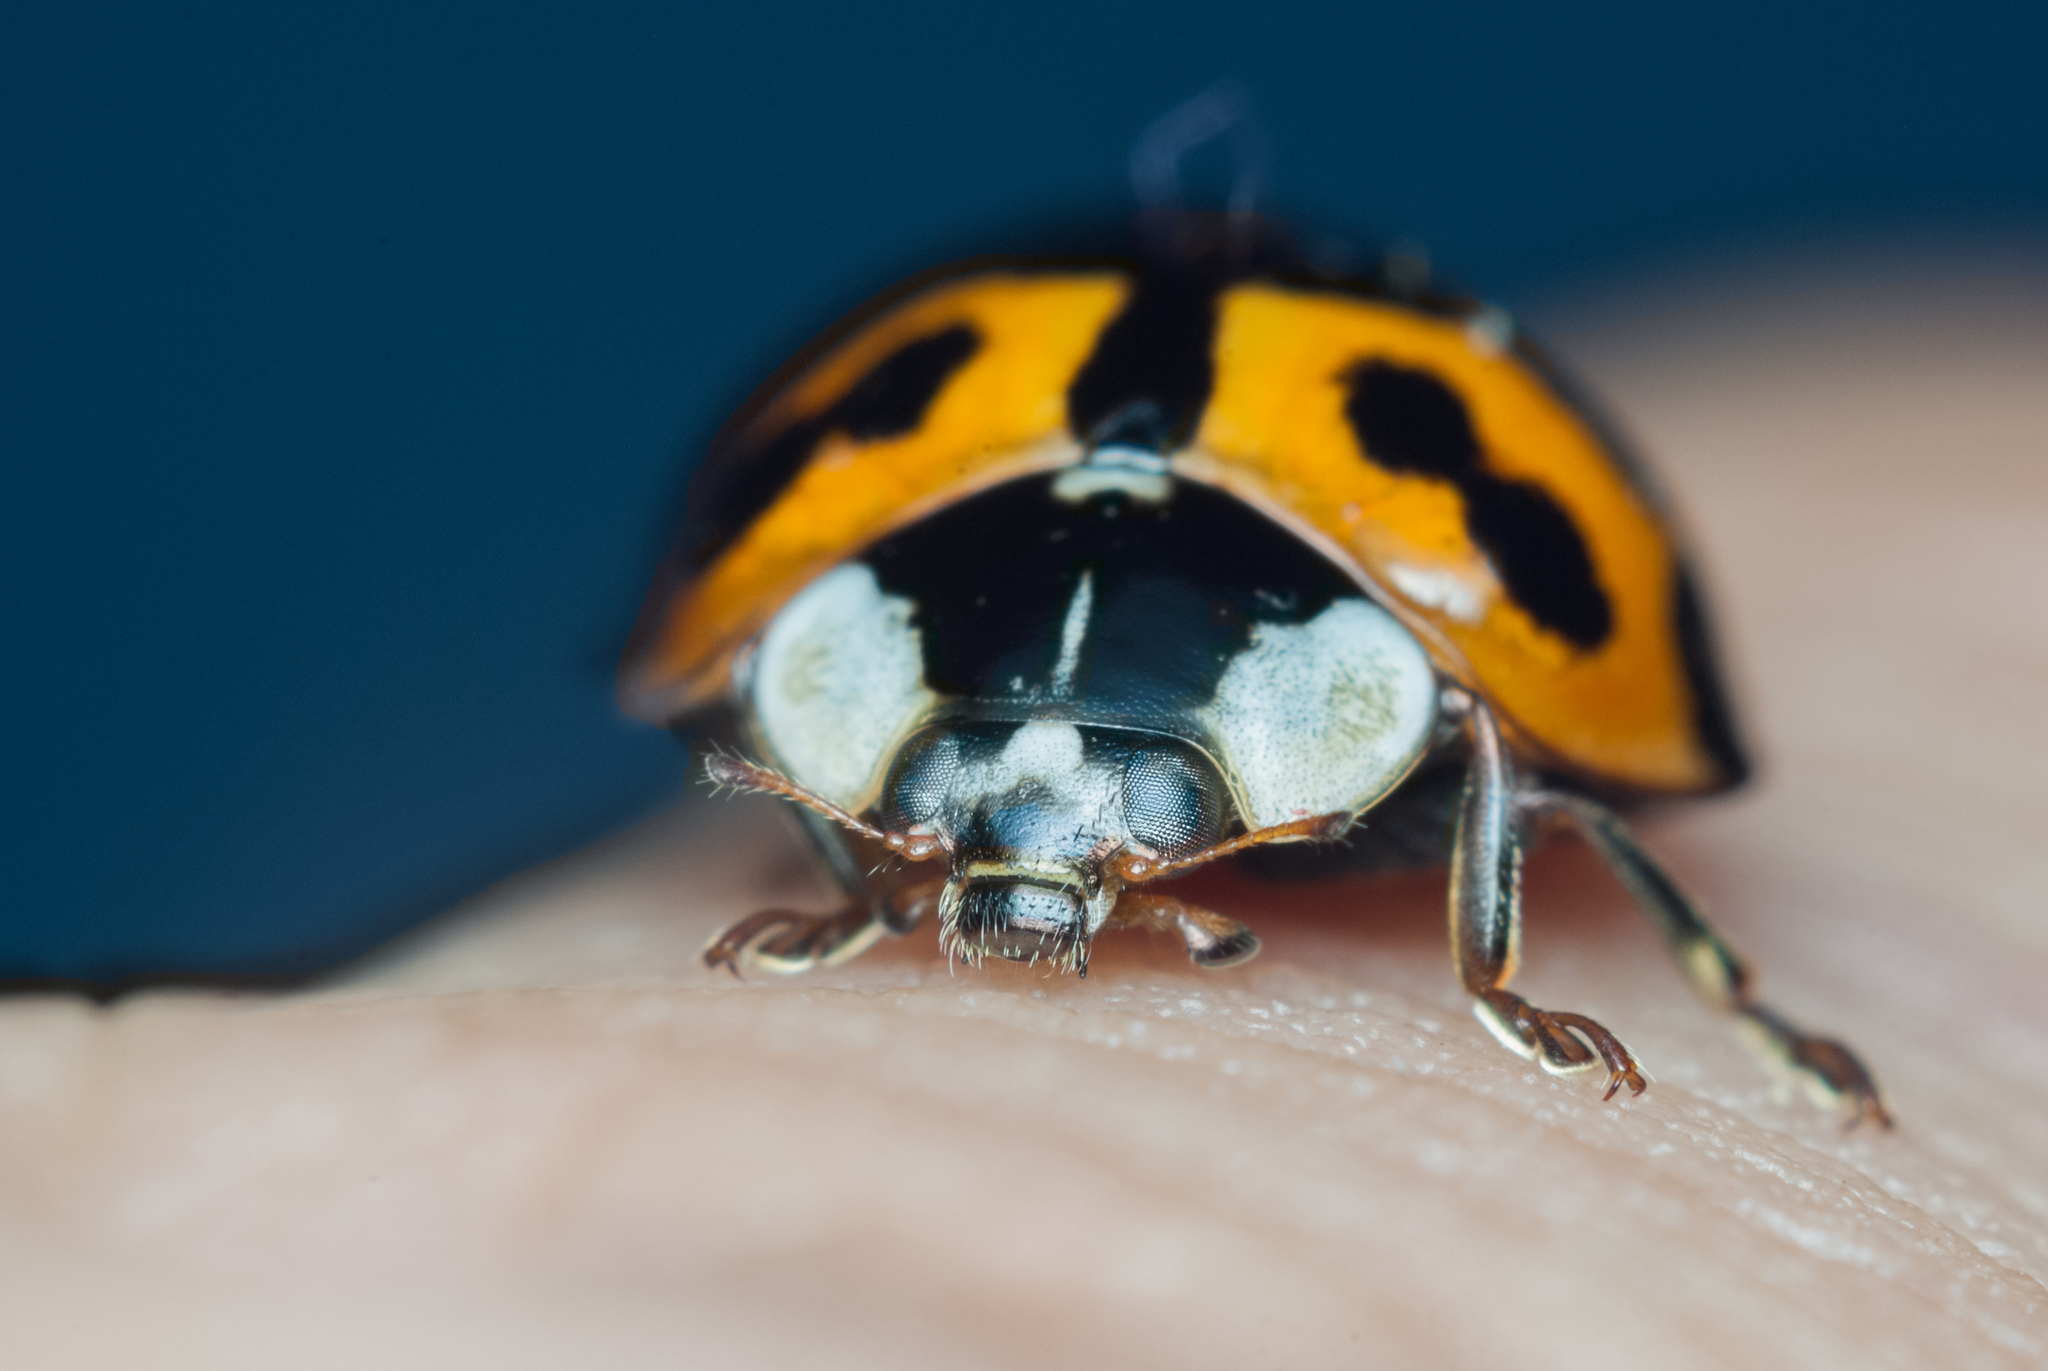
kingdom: Animalia
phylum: Arthropoda
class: Insecta
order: Coleoptera
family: Coccinellidae
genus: Harmonia
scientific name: Harmonia axyridis
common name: Harlequin ladybird
